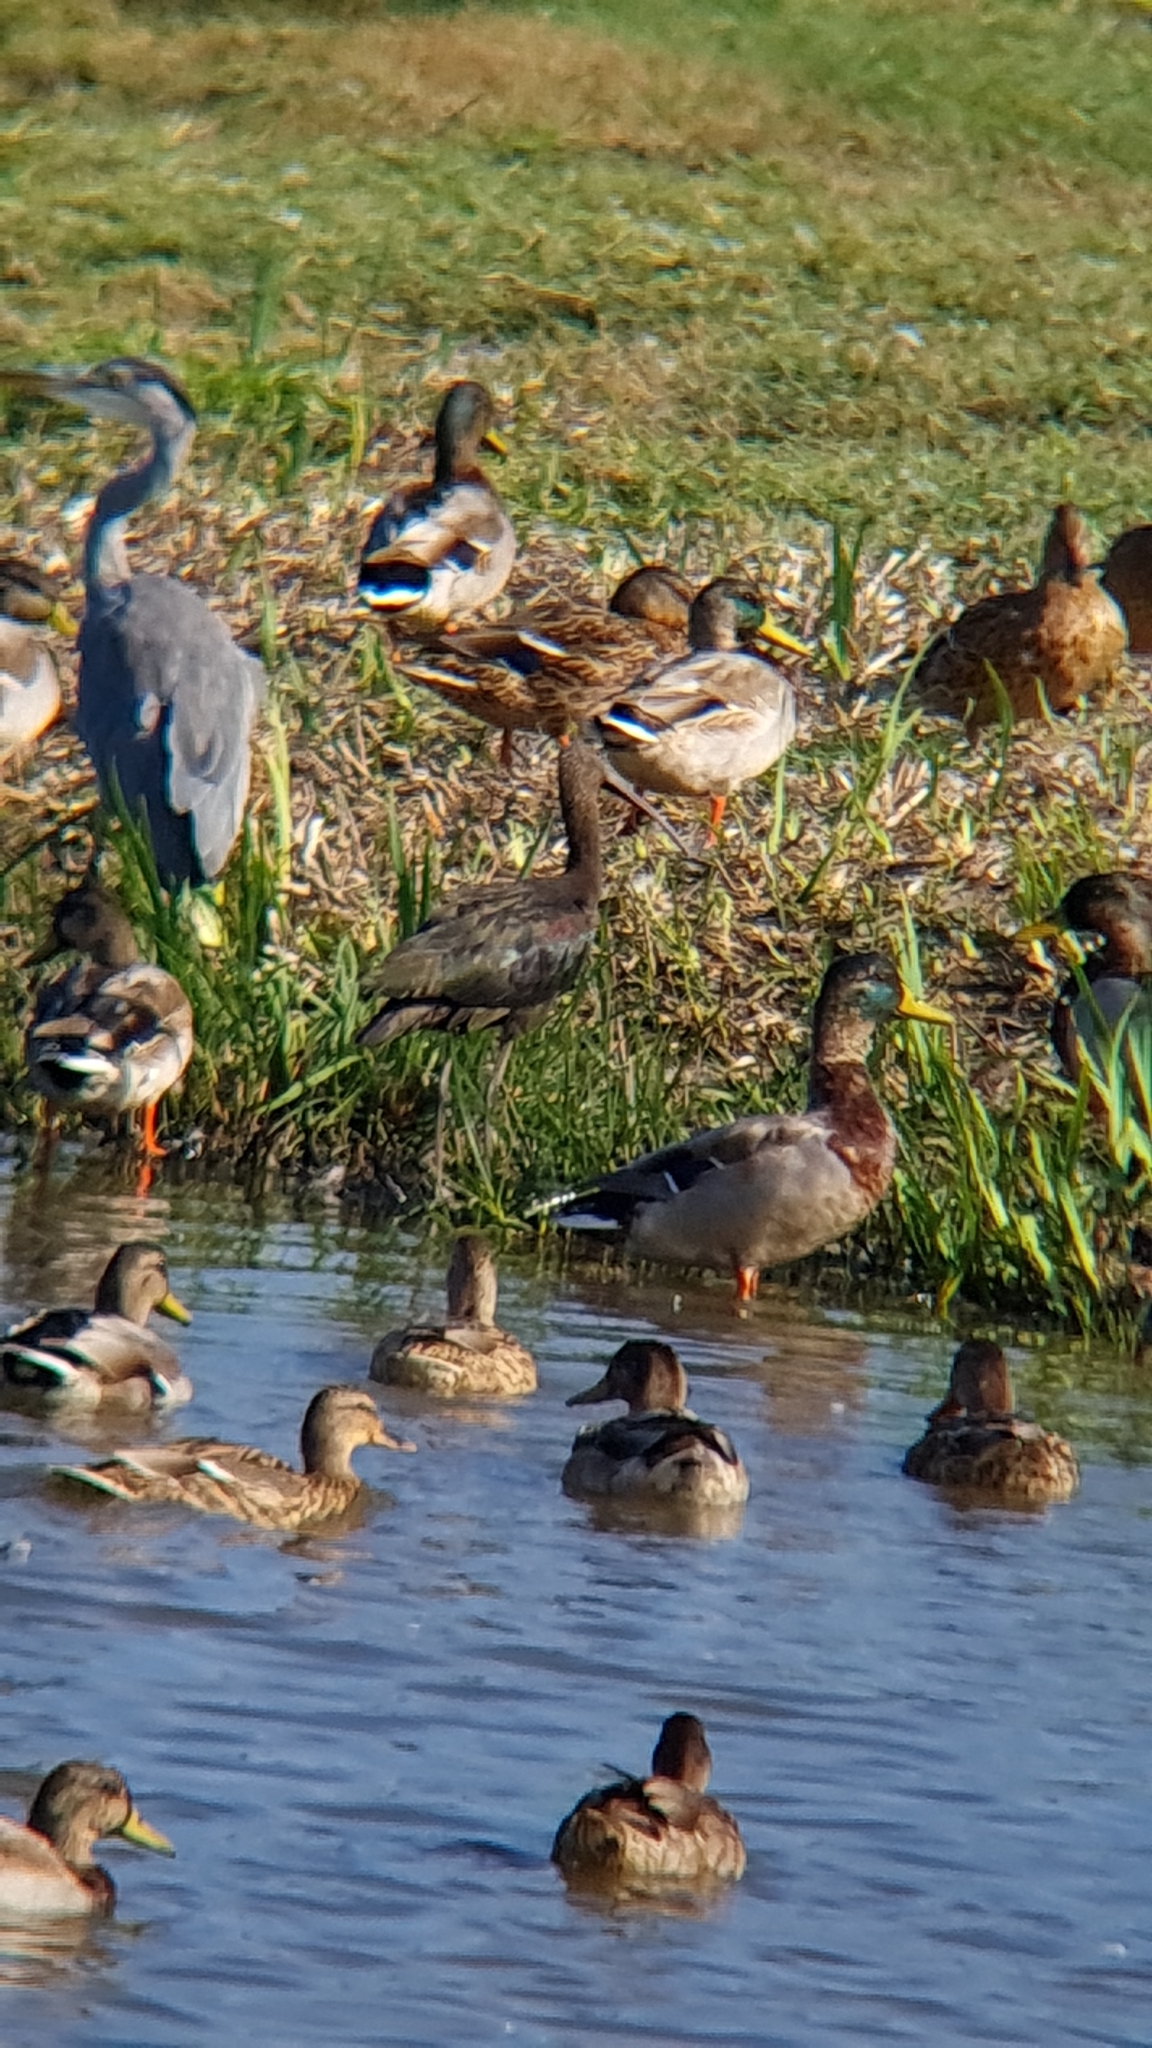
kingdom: Animalia
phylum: Chordata
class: Aves
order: Pelecaniformes
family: Threskiornithidae
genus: Plegadis
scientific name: Plegadis falcinellus
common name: Glossy ibis
